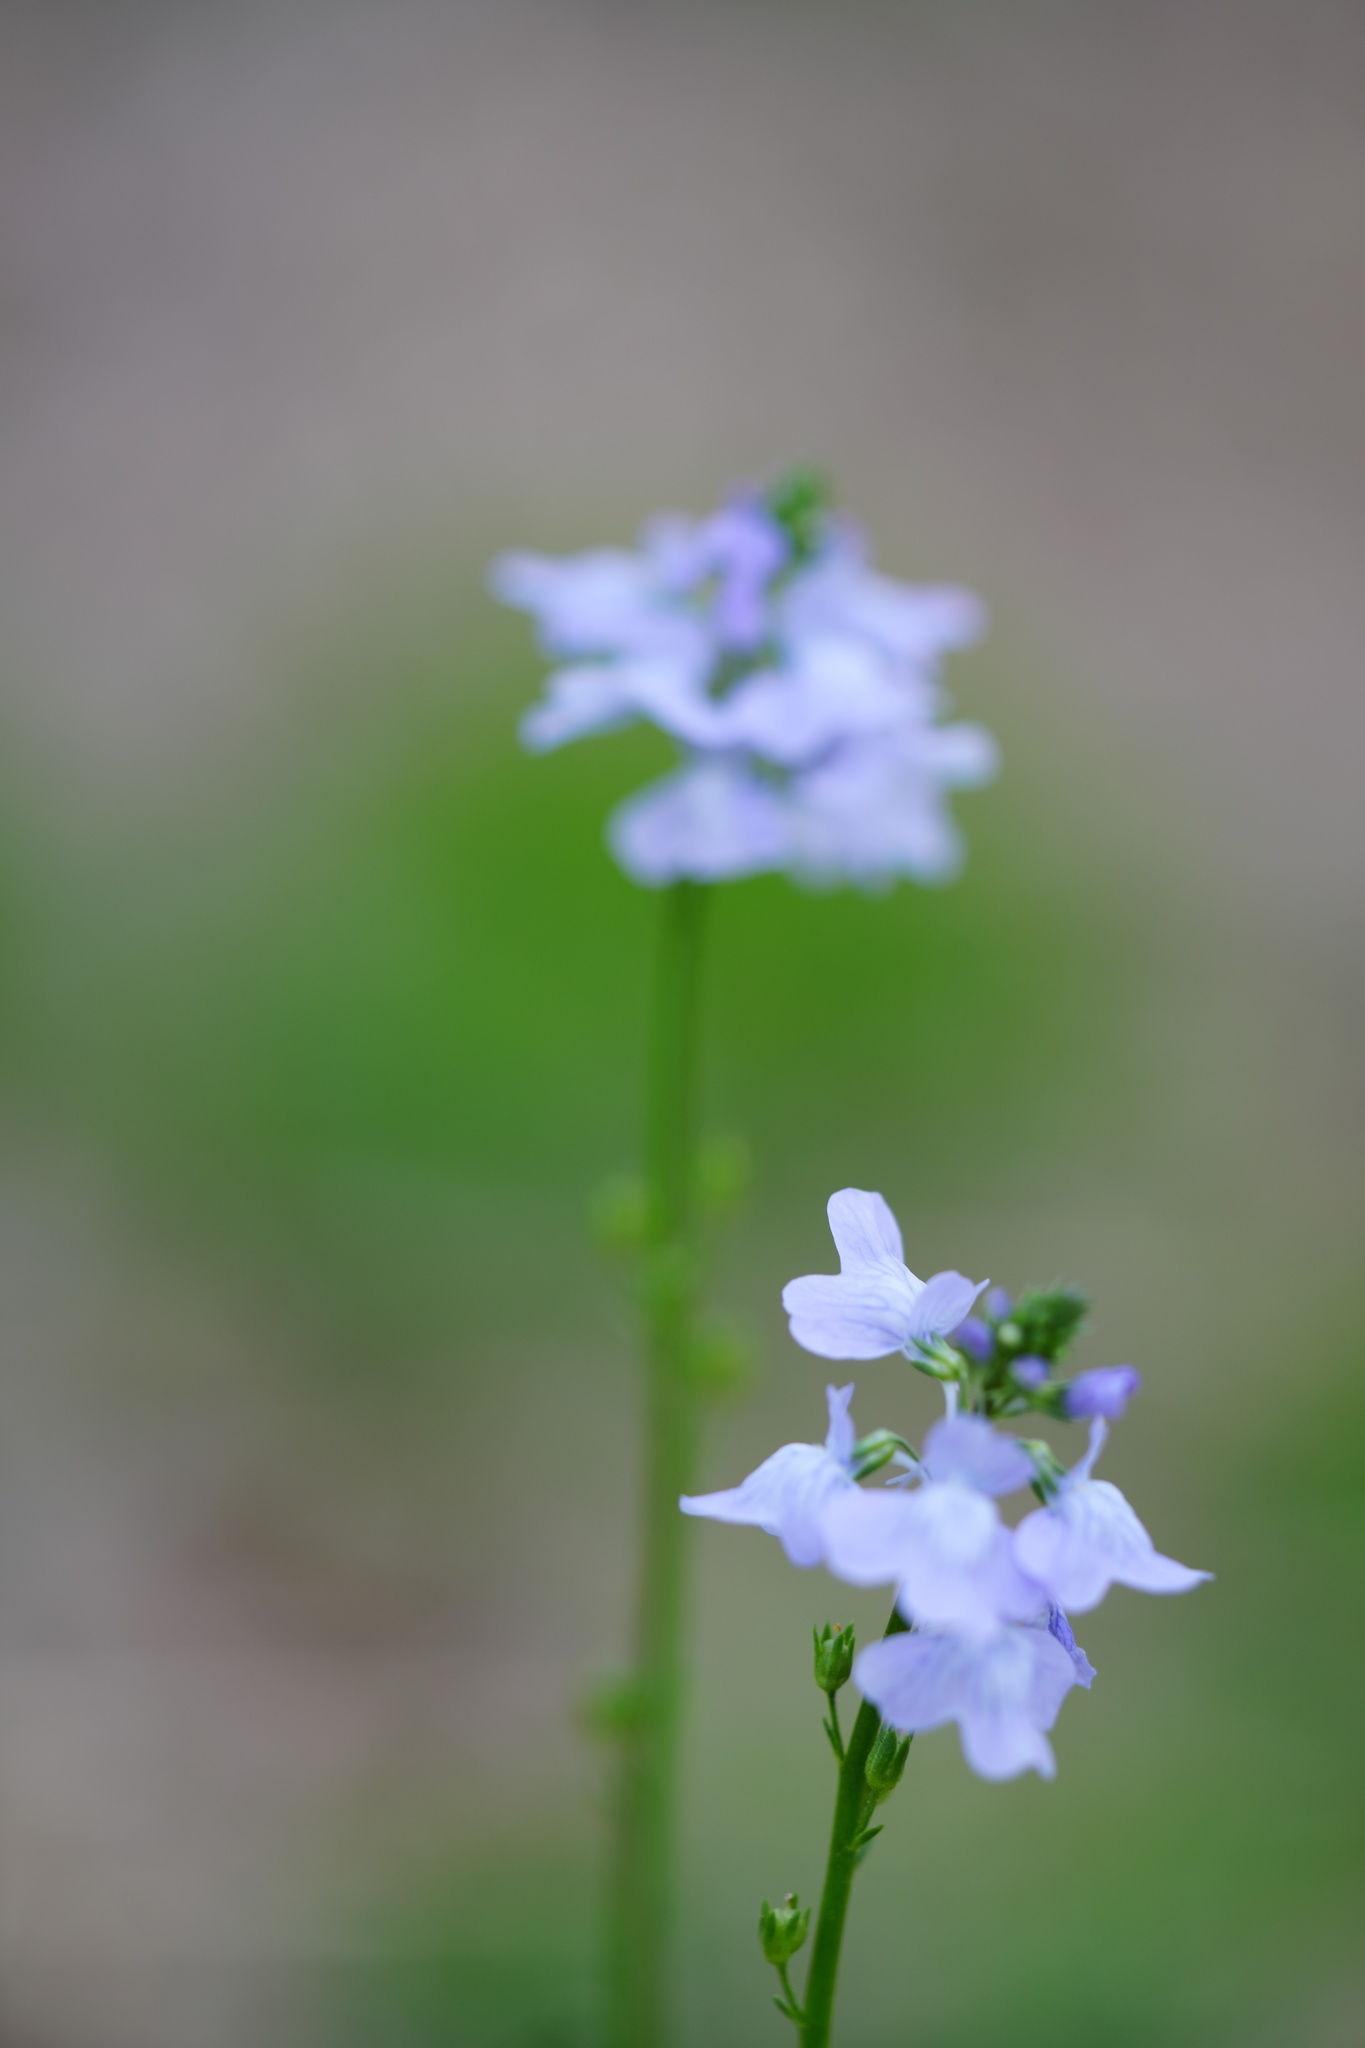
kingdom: Plantae
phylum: Tracheophyta
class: Magnoliopsida
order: Lamiales
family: Plantaginaceae
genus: Nuttallanthus
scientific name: Nuttallanthus texanus
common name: Texas toadflax
